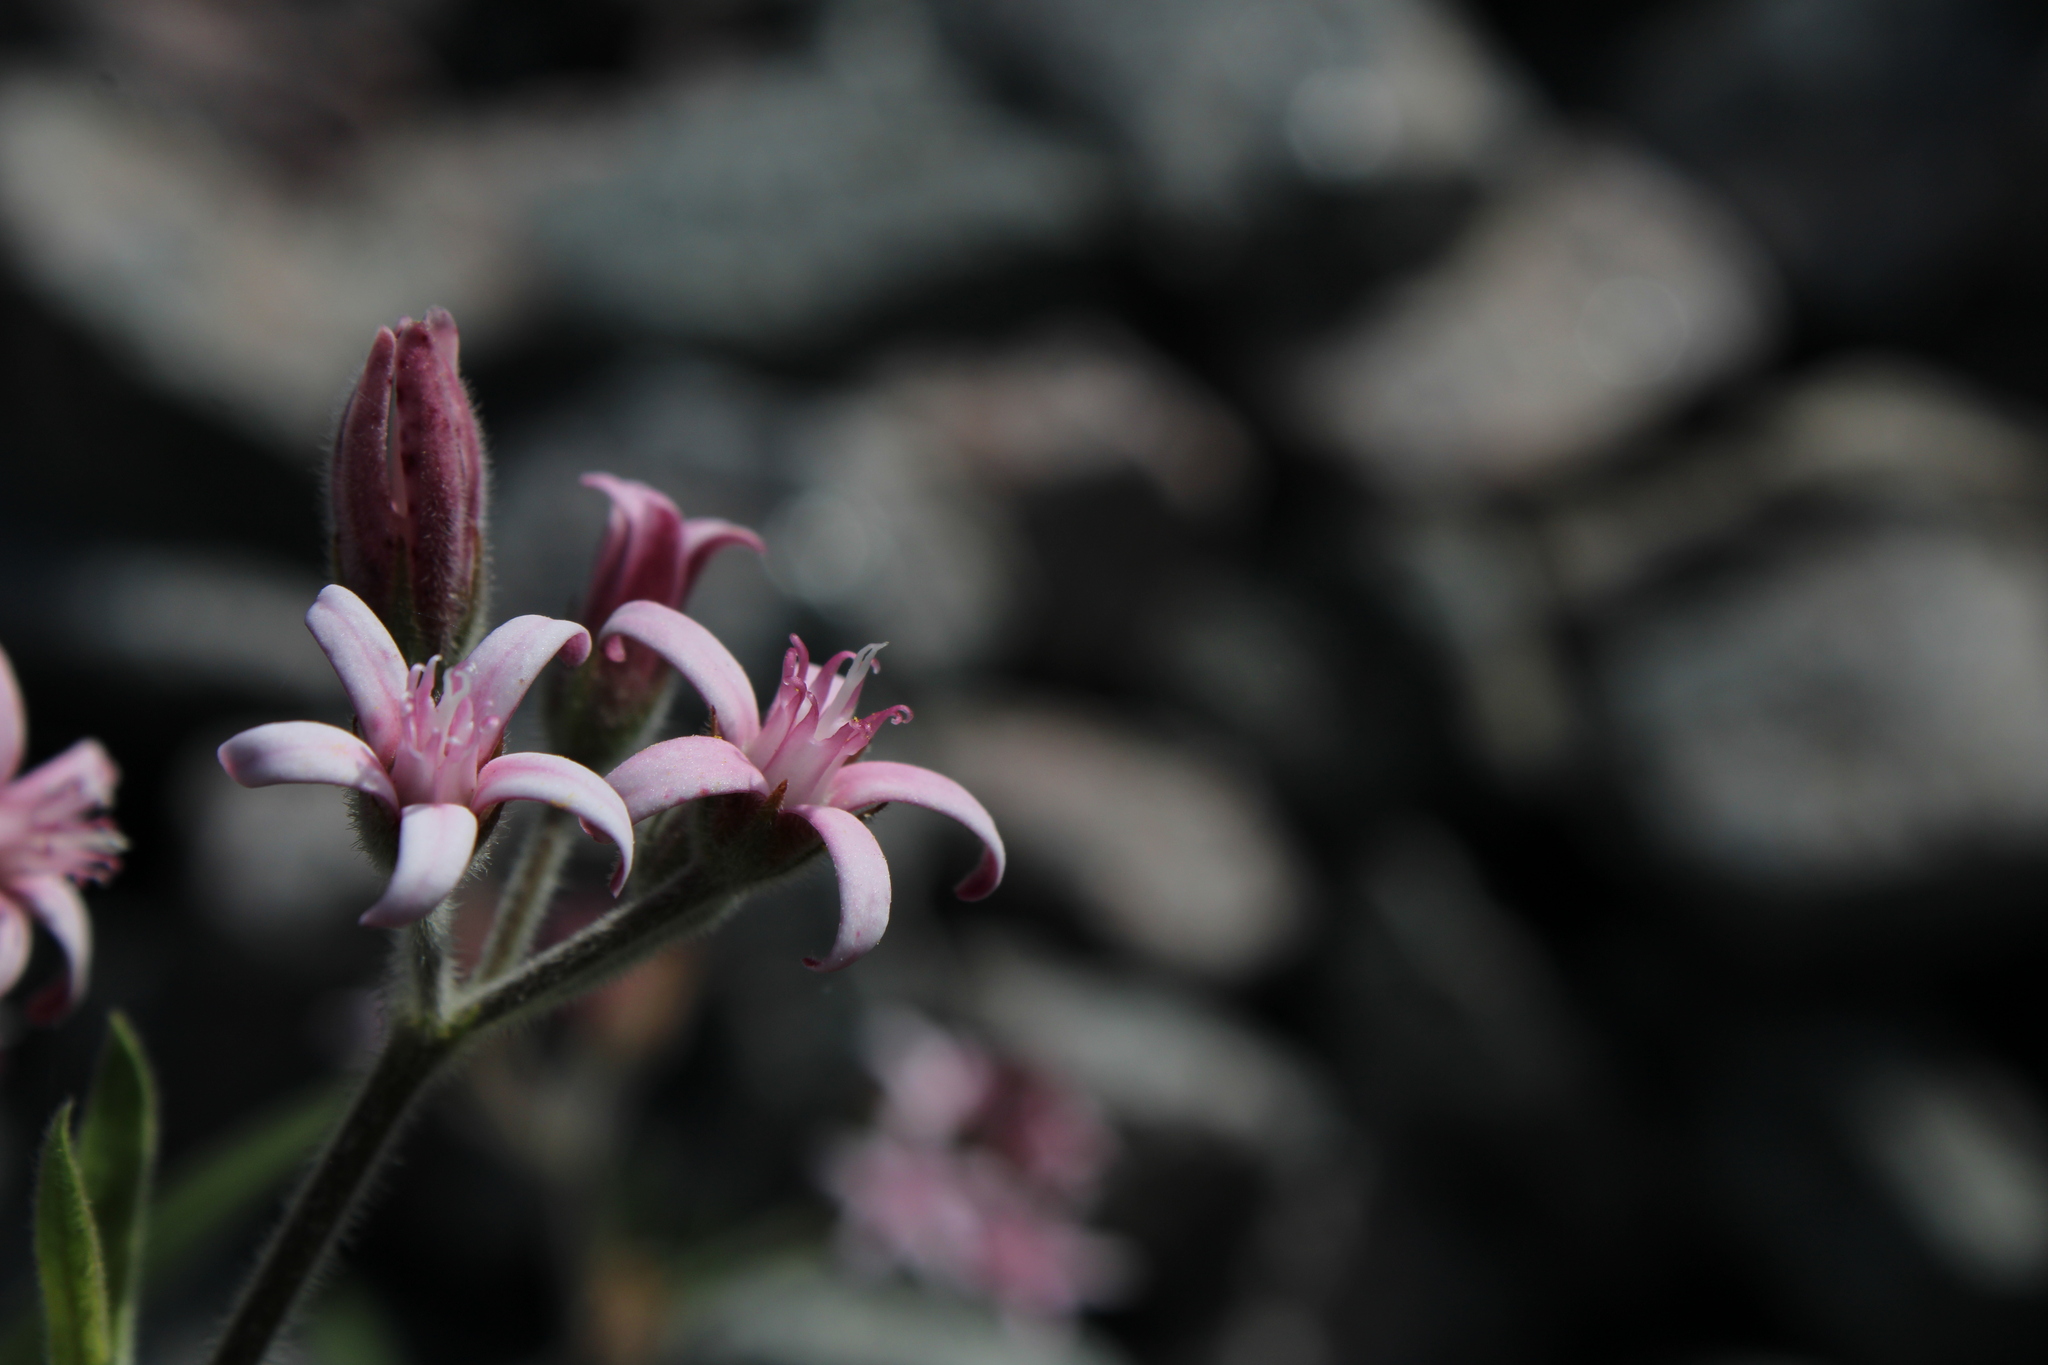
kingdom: Plantae
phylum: Tracheophyta
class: Magnoliopsida
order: Gentianales
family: Apocynaceae
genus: Oxypetalum
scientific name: Oxypetalum solanoides
